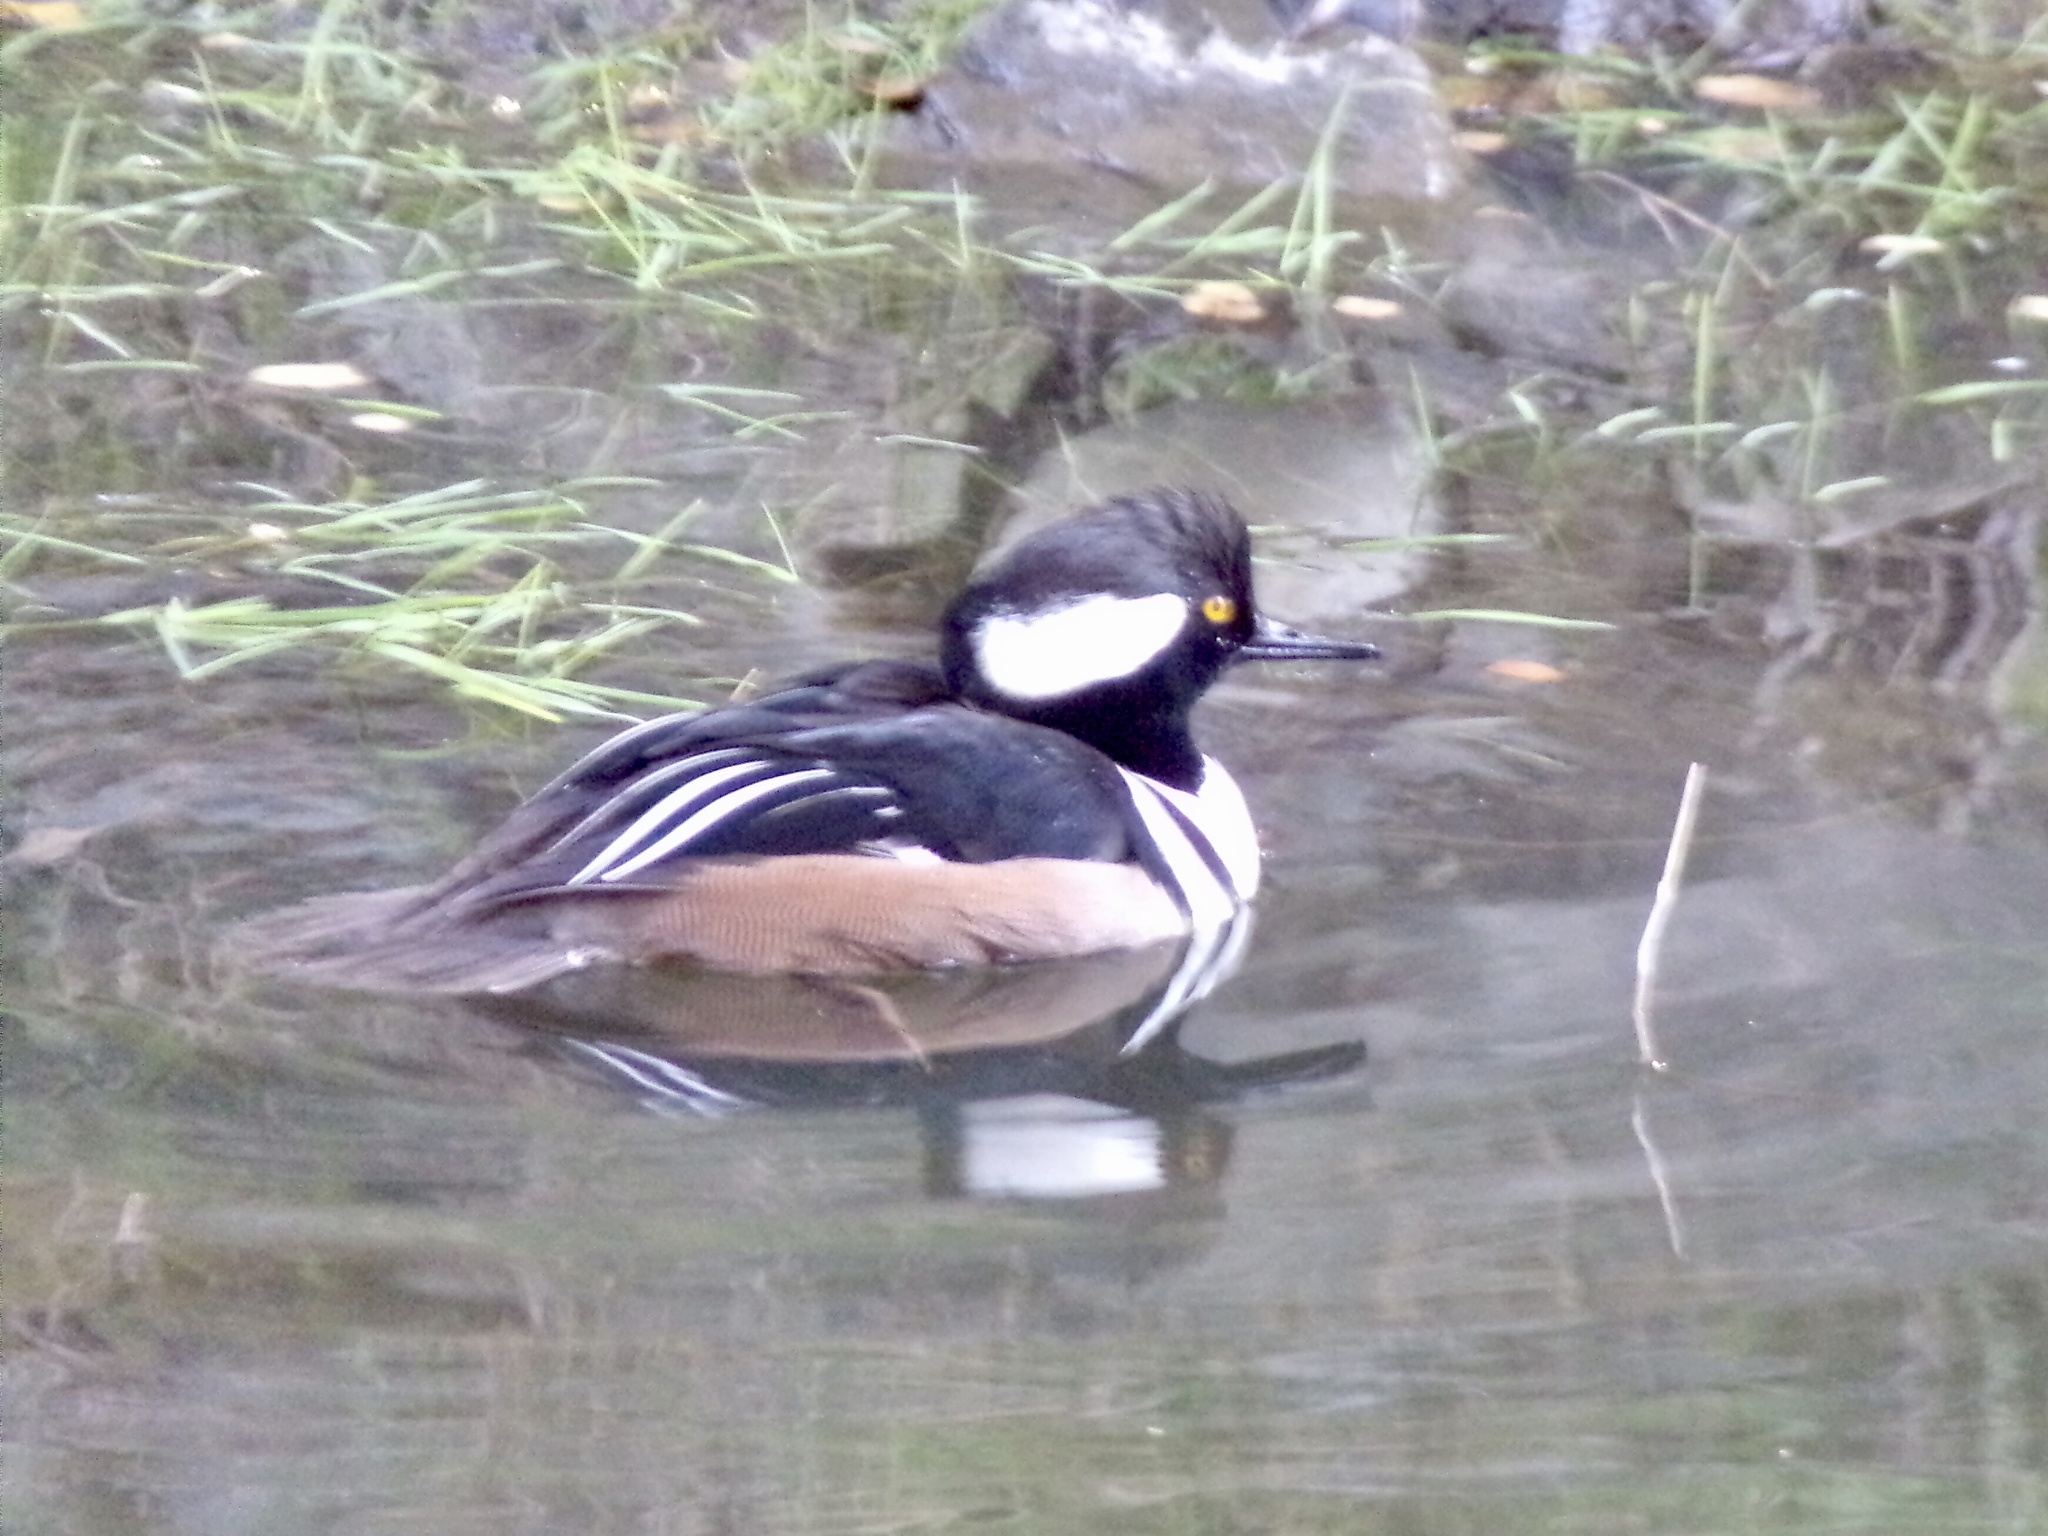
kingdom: Animalia
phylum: Chordata
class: Aves
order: Anseriformes
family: Anatidae
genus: Lophodytes
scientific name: Lophodytes cucullatus
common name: Hooded merganser
